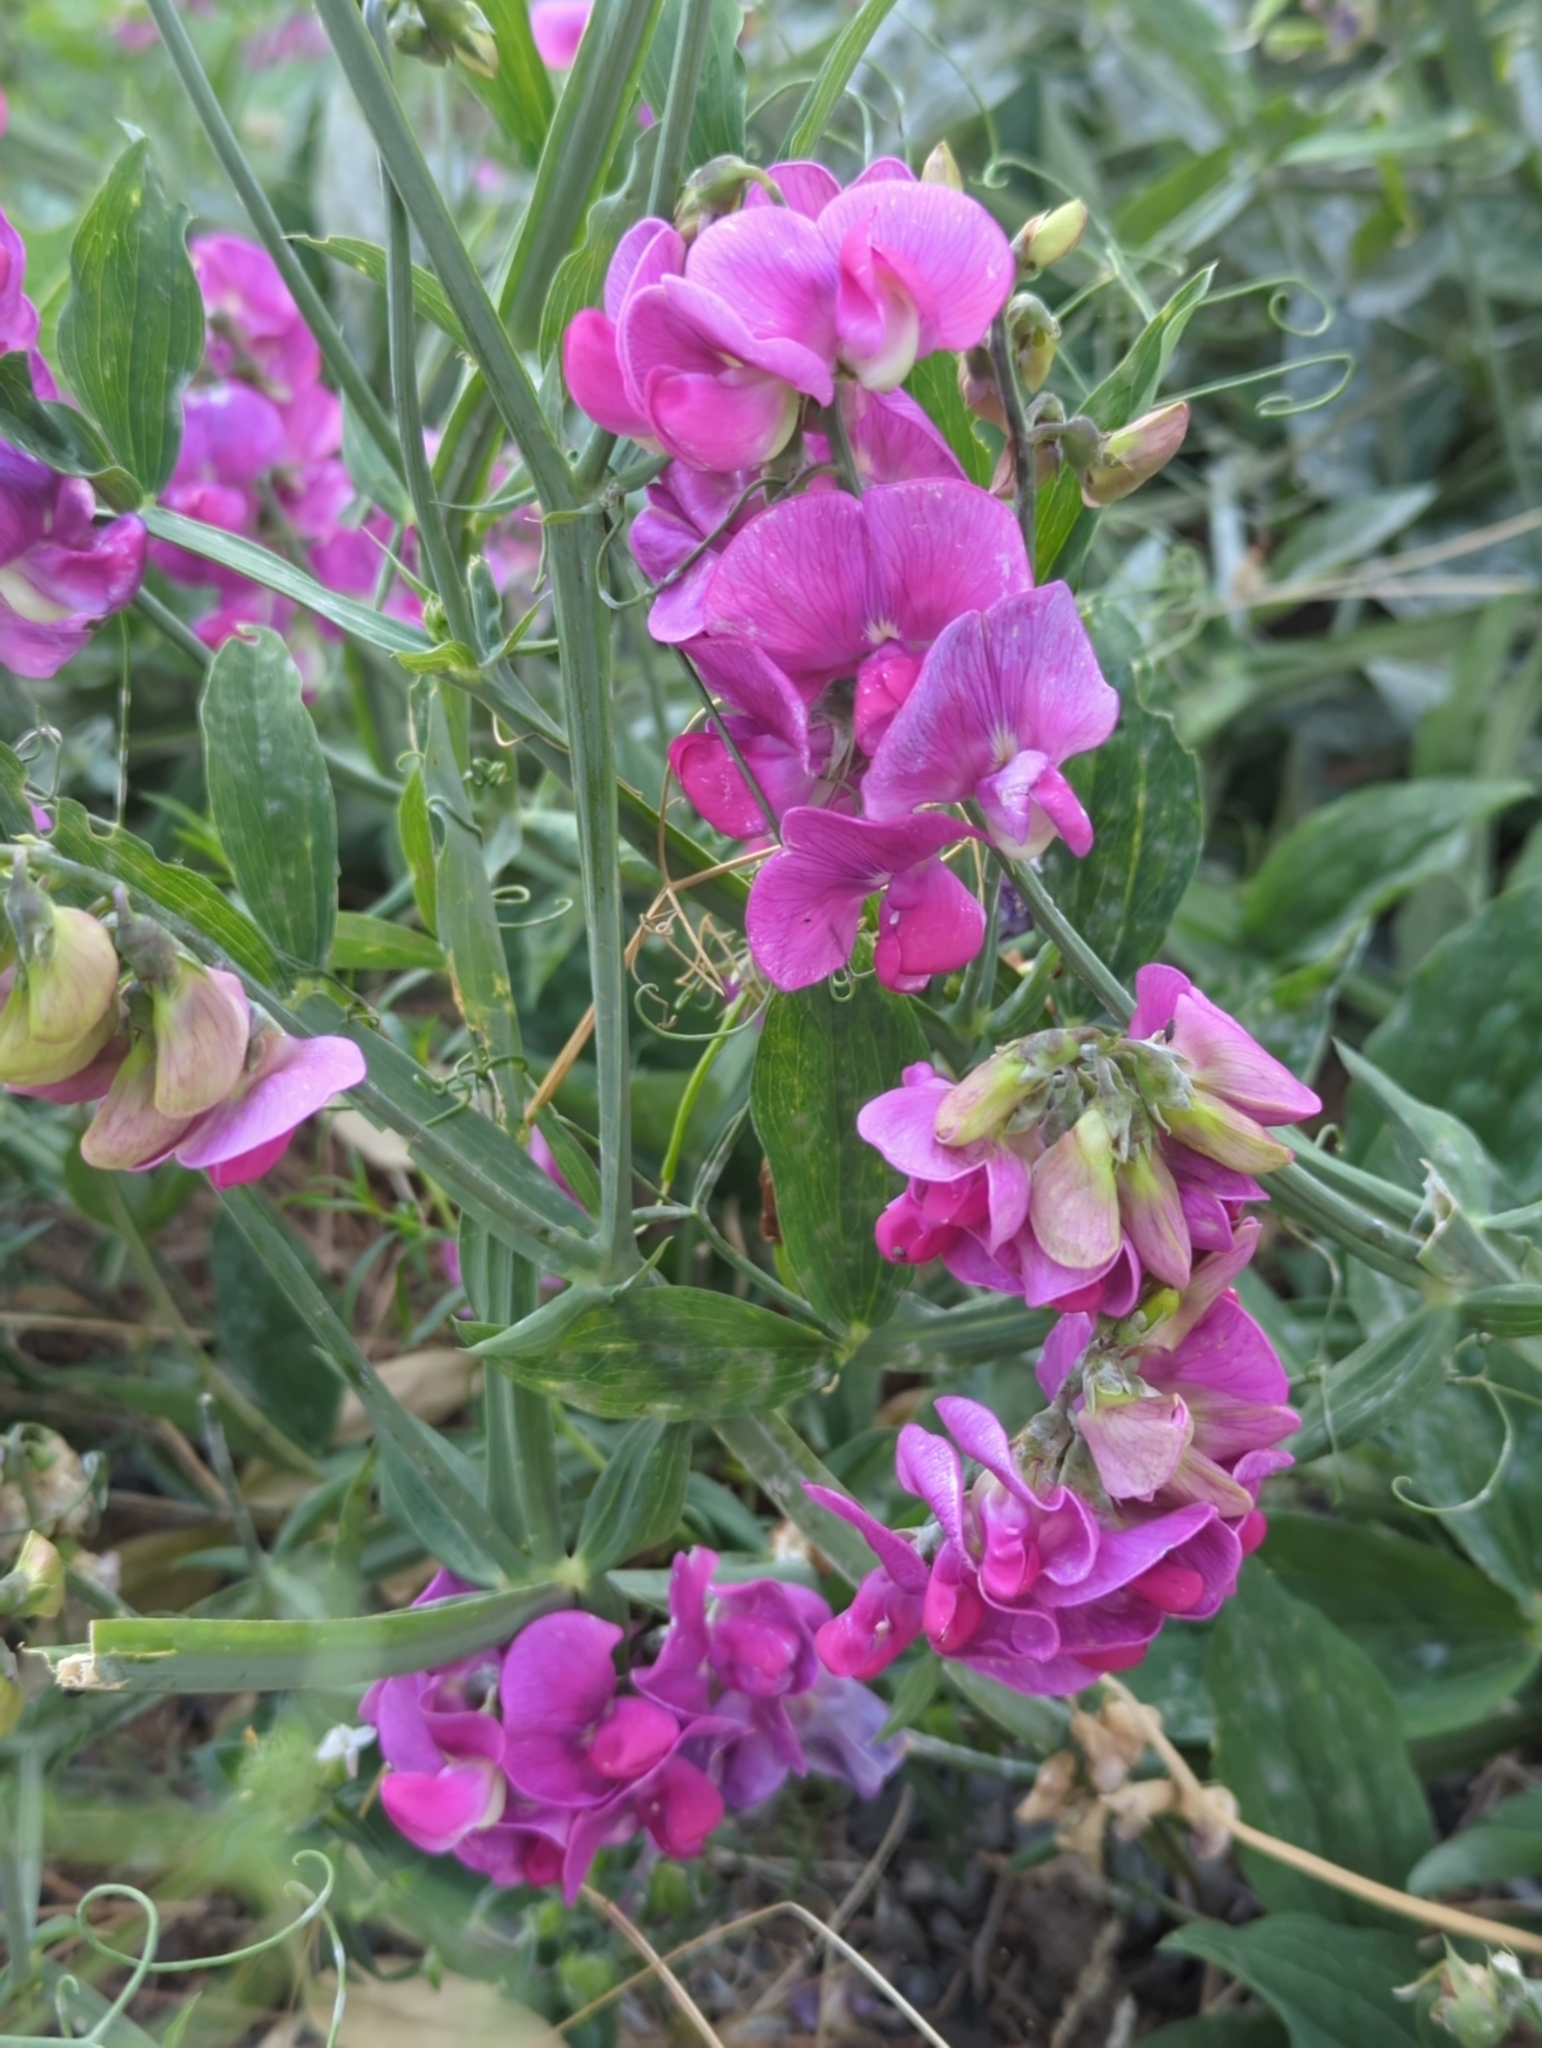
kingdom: Plantae
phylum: Tracheophyta
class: Magnoliopsida
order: Fabales
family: Fabaceae
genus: Lathyrus
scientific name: Lathyrus latifolius
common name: Perennial pea
